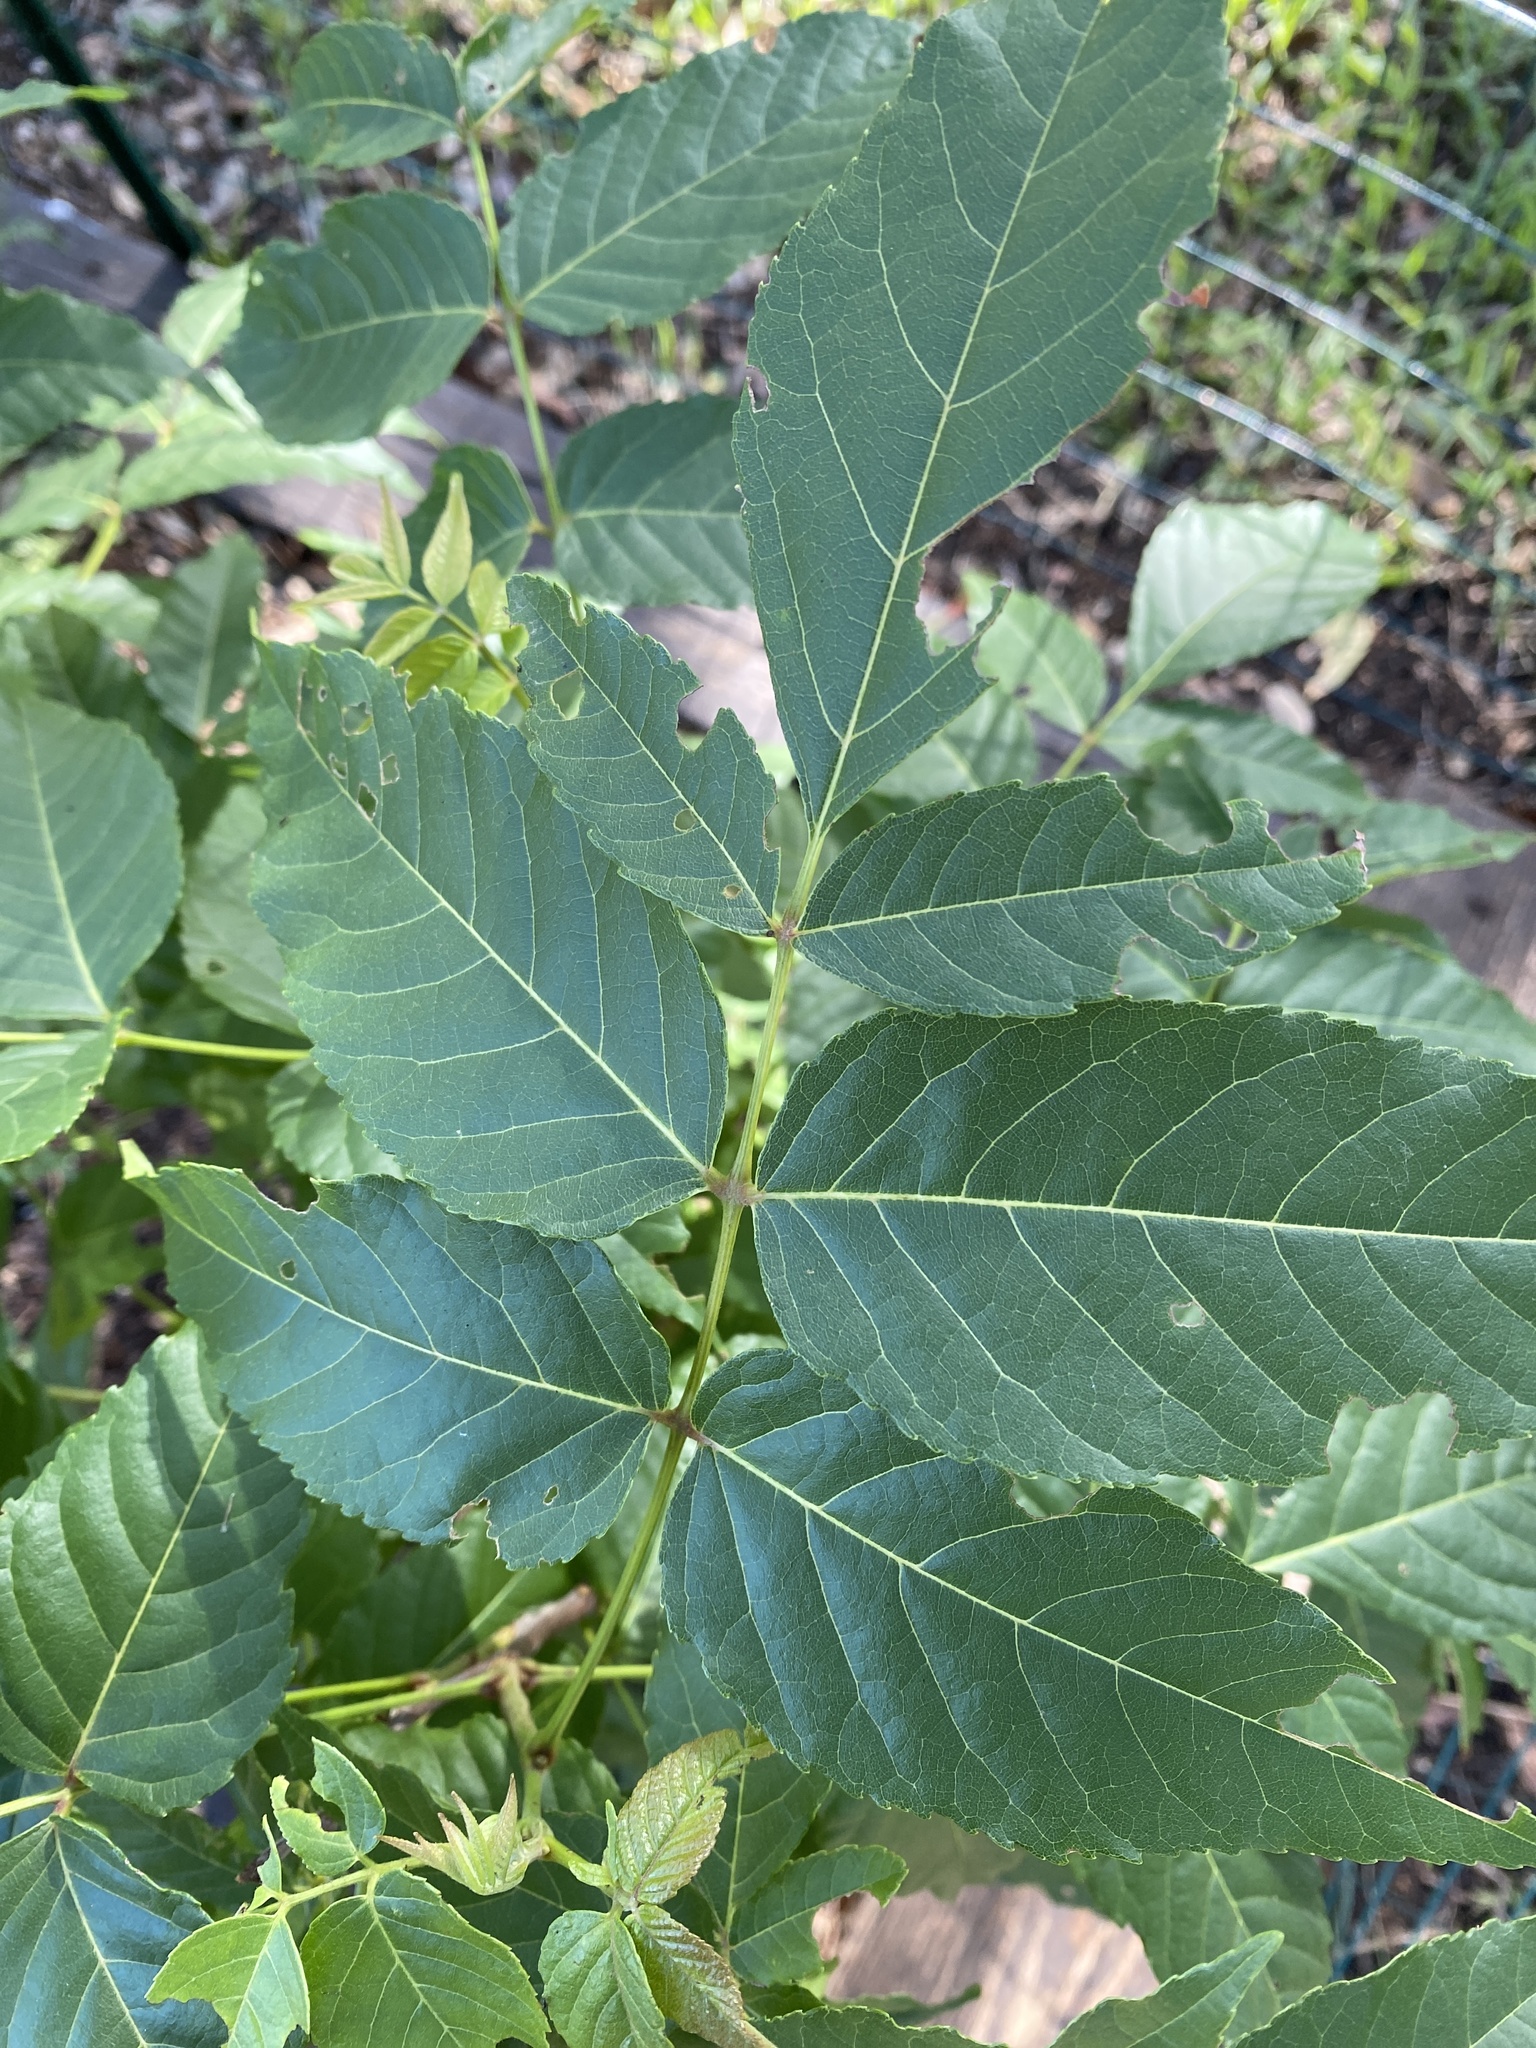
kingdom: Plantae
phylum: Tracheophyta
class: Magnoliopsida
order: Sapindales
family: Sapindaceae
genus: Ungnadia
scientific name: Ungnadia speciosa
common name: Texas-buckeye
